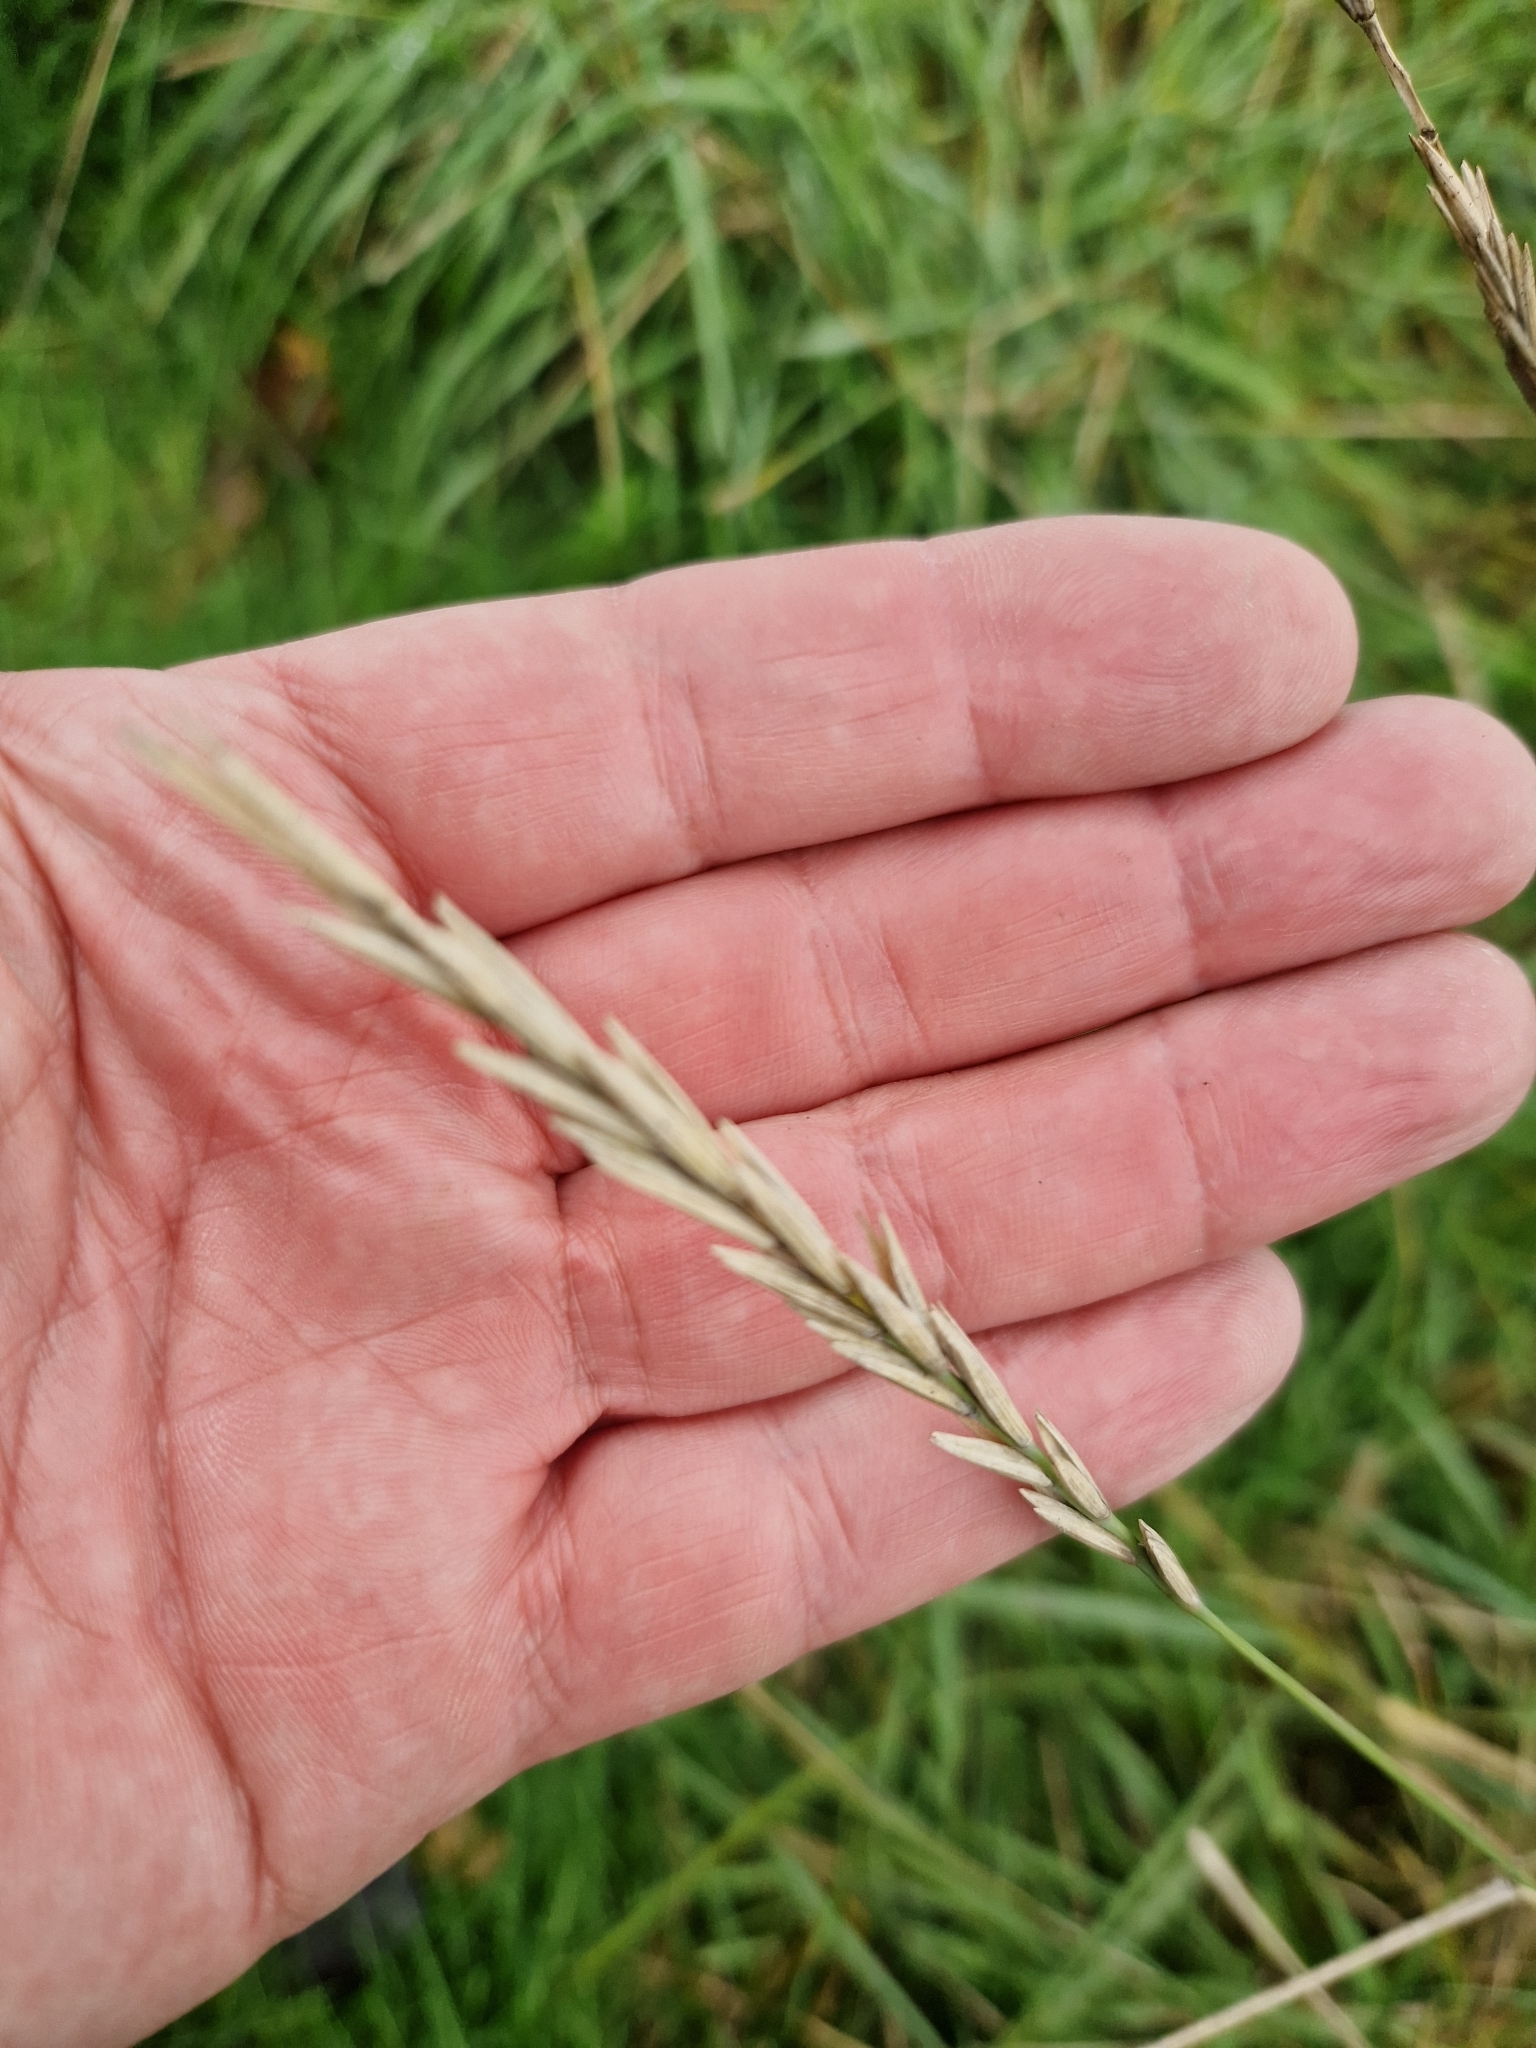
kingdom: Plantae
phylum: Tracheophyta
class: Liliopsida
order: Poales
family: Poaceae
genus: Elymus
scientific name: Elymus athericus
